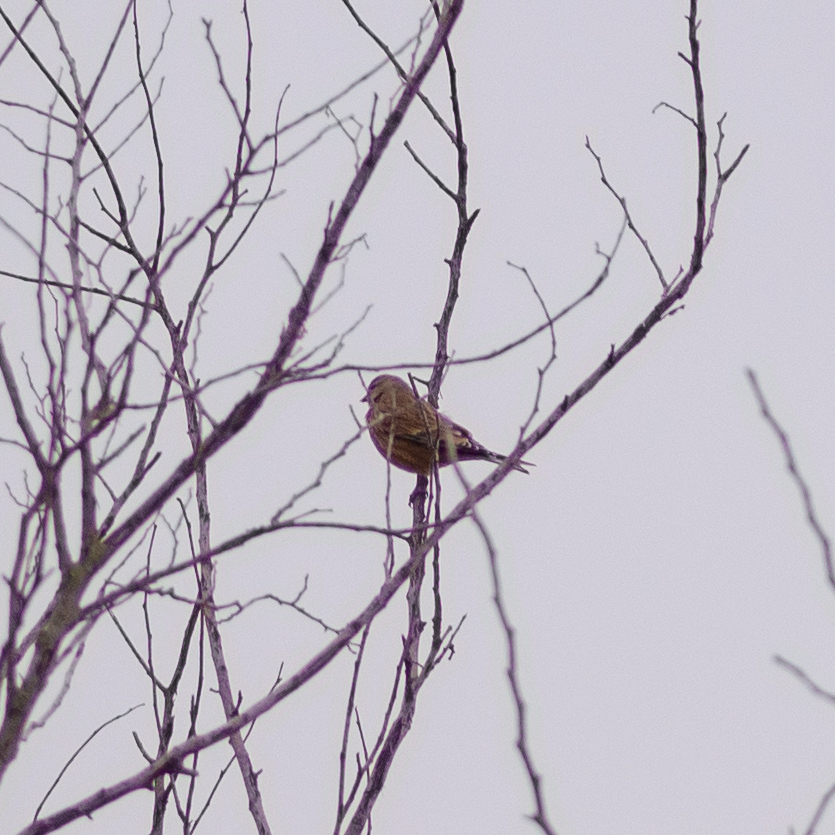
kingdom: Animalia
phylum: Chordata
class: Aves
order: Passeriformes
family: Fringillidae
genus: Linaria
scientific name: Linaria cannabina
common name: Common linnet
